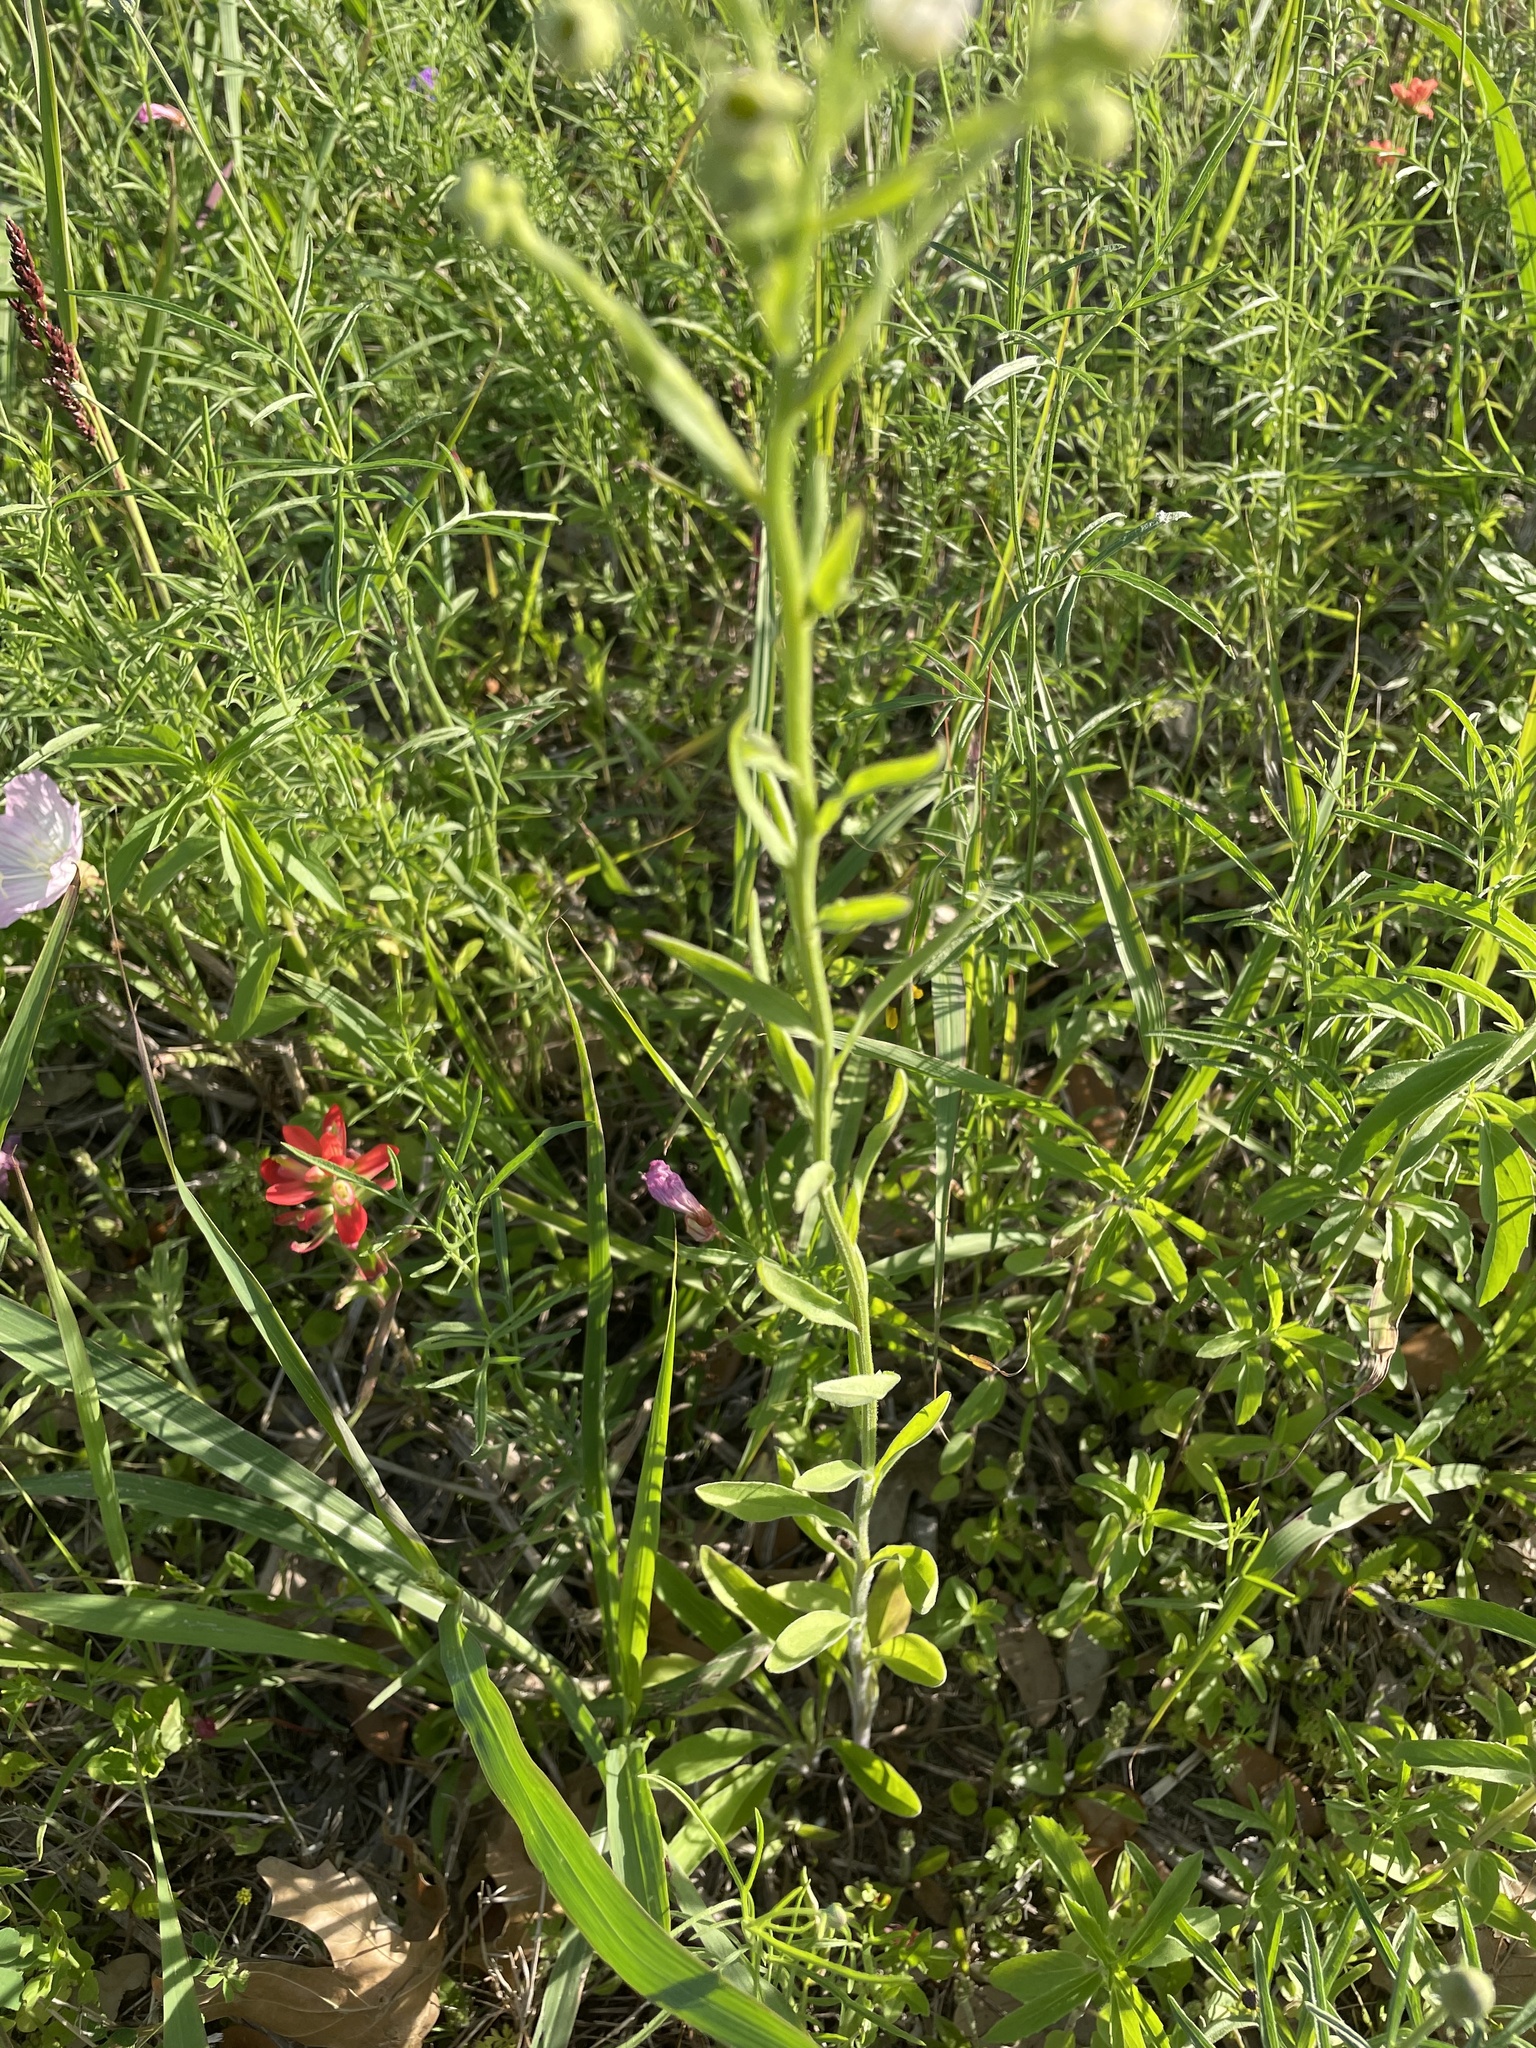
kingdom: Plantae
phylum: Tracheophyta
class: Magnoliopsida
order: Asterales
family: Asteraceae
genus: Erigeron
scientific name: Erigeron strigosus
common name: Common eastern fleabane
